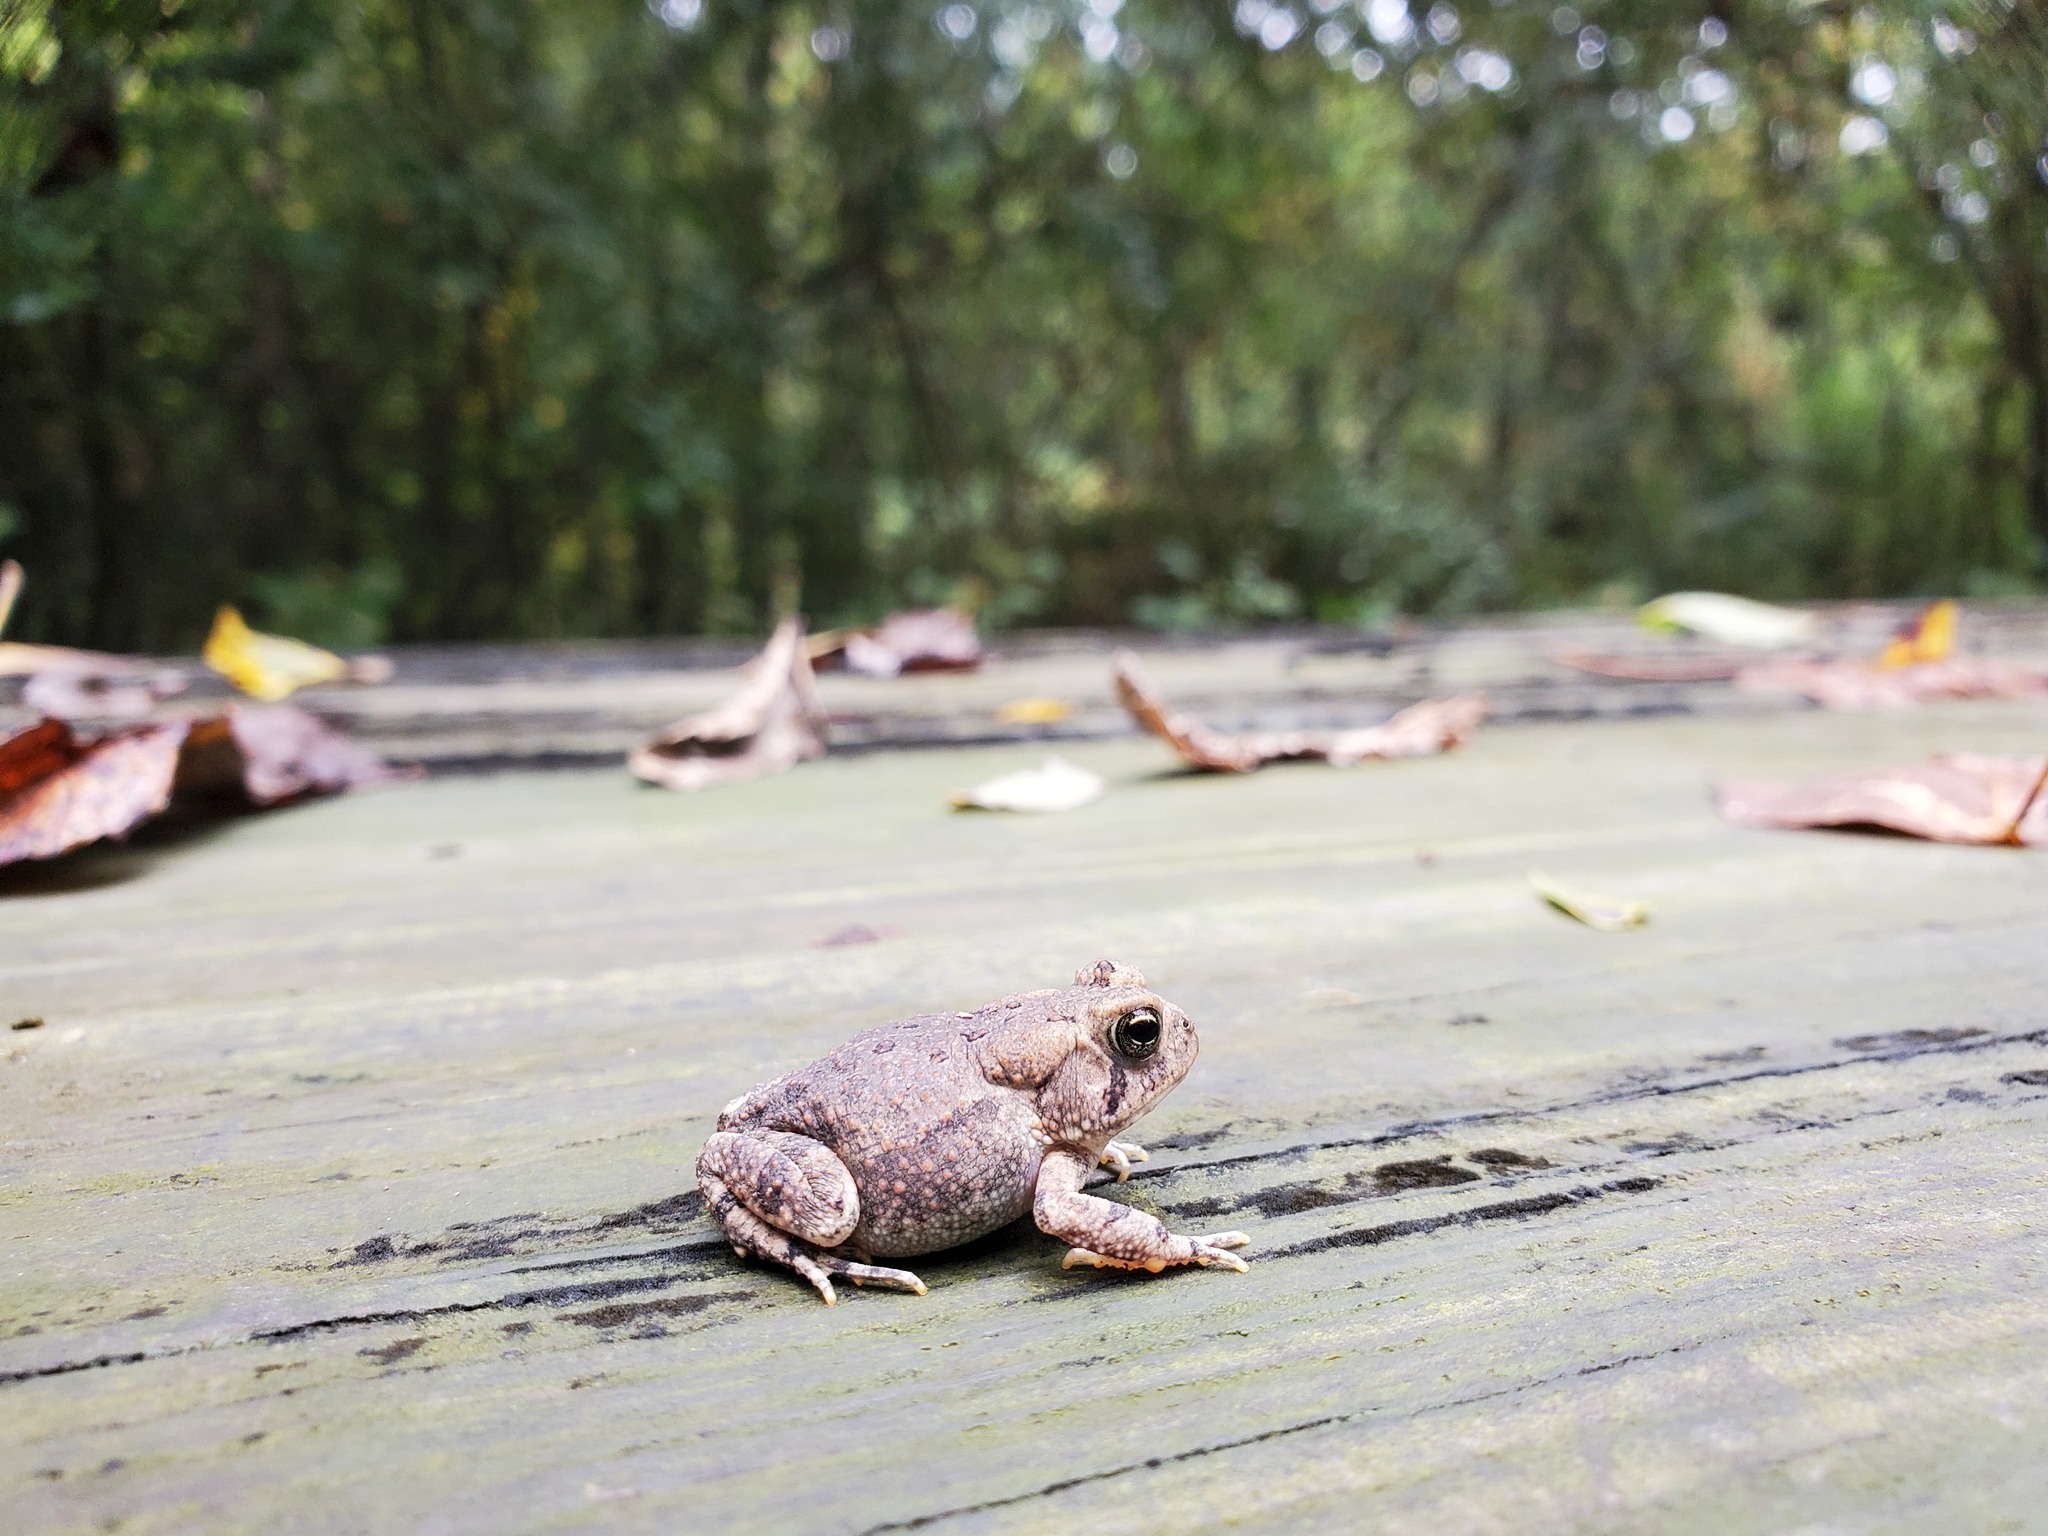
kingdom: Animalia
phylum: Chordata
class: Amphibia
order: Anura
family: Bufonidae
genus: Anaxyrus
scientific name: Anaxyrus americanus
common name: American toad
